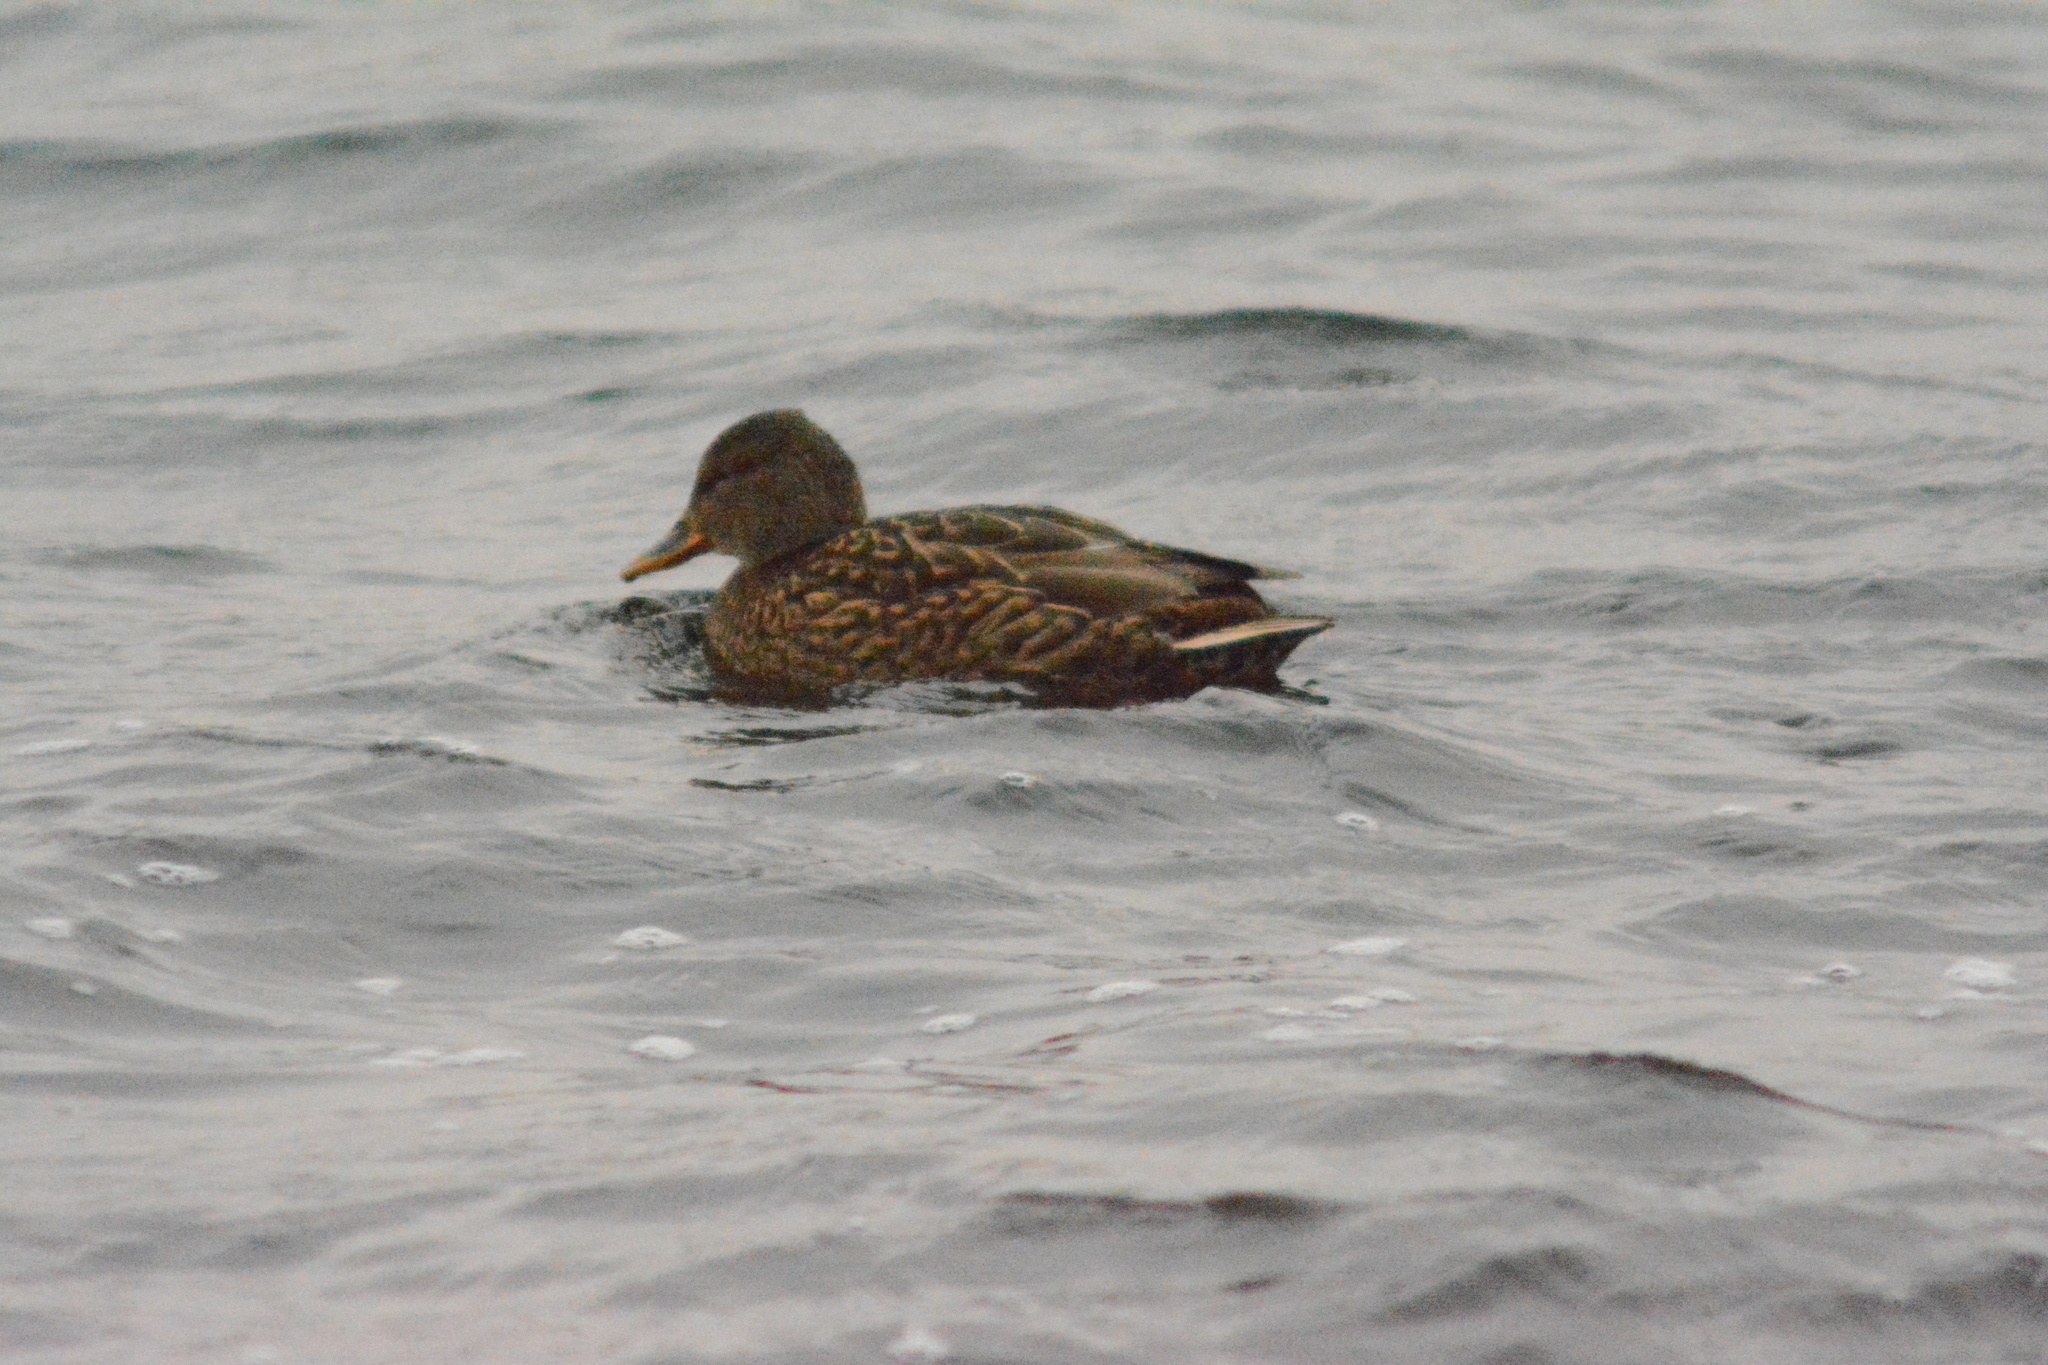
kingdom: Animalia
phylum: Chordata
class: Aves
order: Anseriformes
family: Anatidae
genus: Anas
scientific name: Anas platyrhynchos
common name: Mallard
